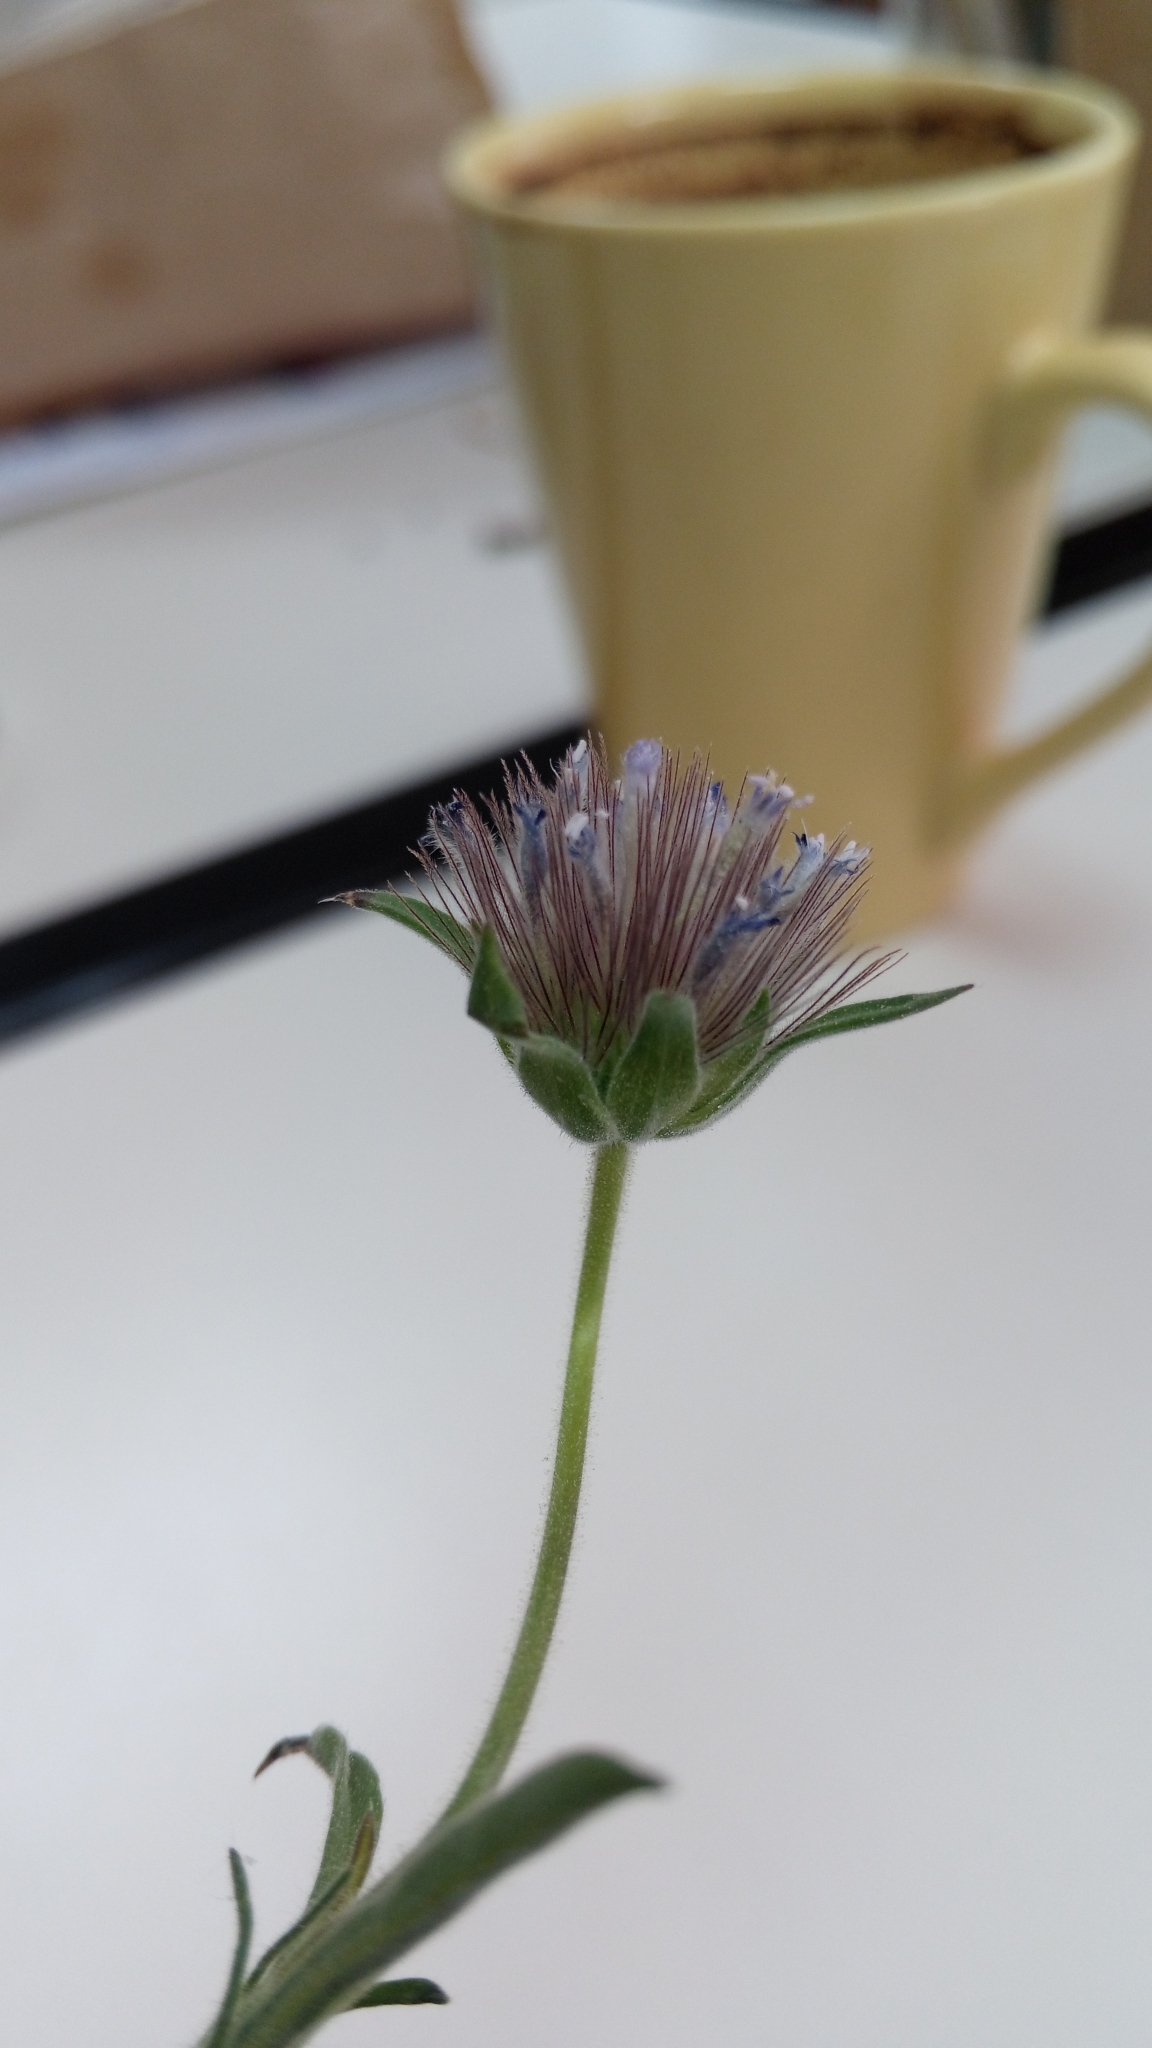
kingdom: Plantae
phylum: Tracheophyta
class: Magnoliopsida
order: Dipsacales
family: Caprifoliaceae
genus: Pterocephalus
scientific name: Pterocephalus plumosus
